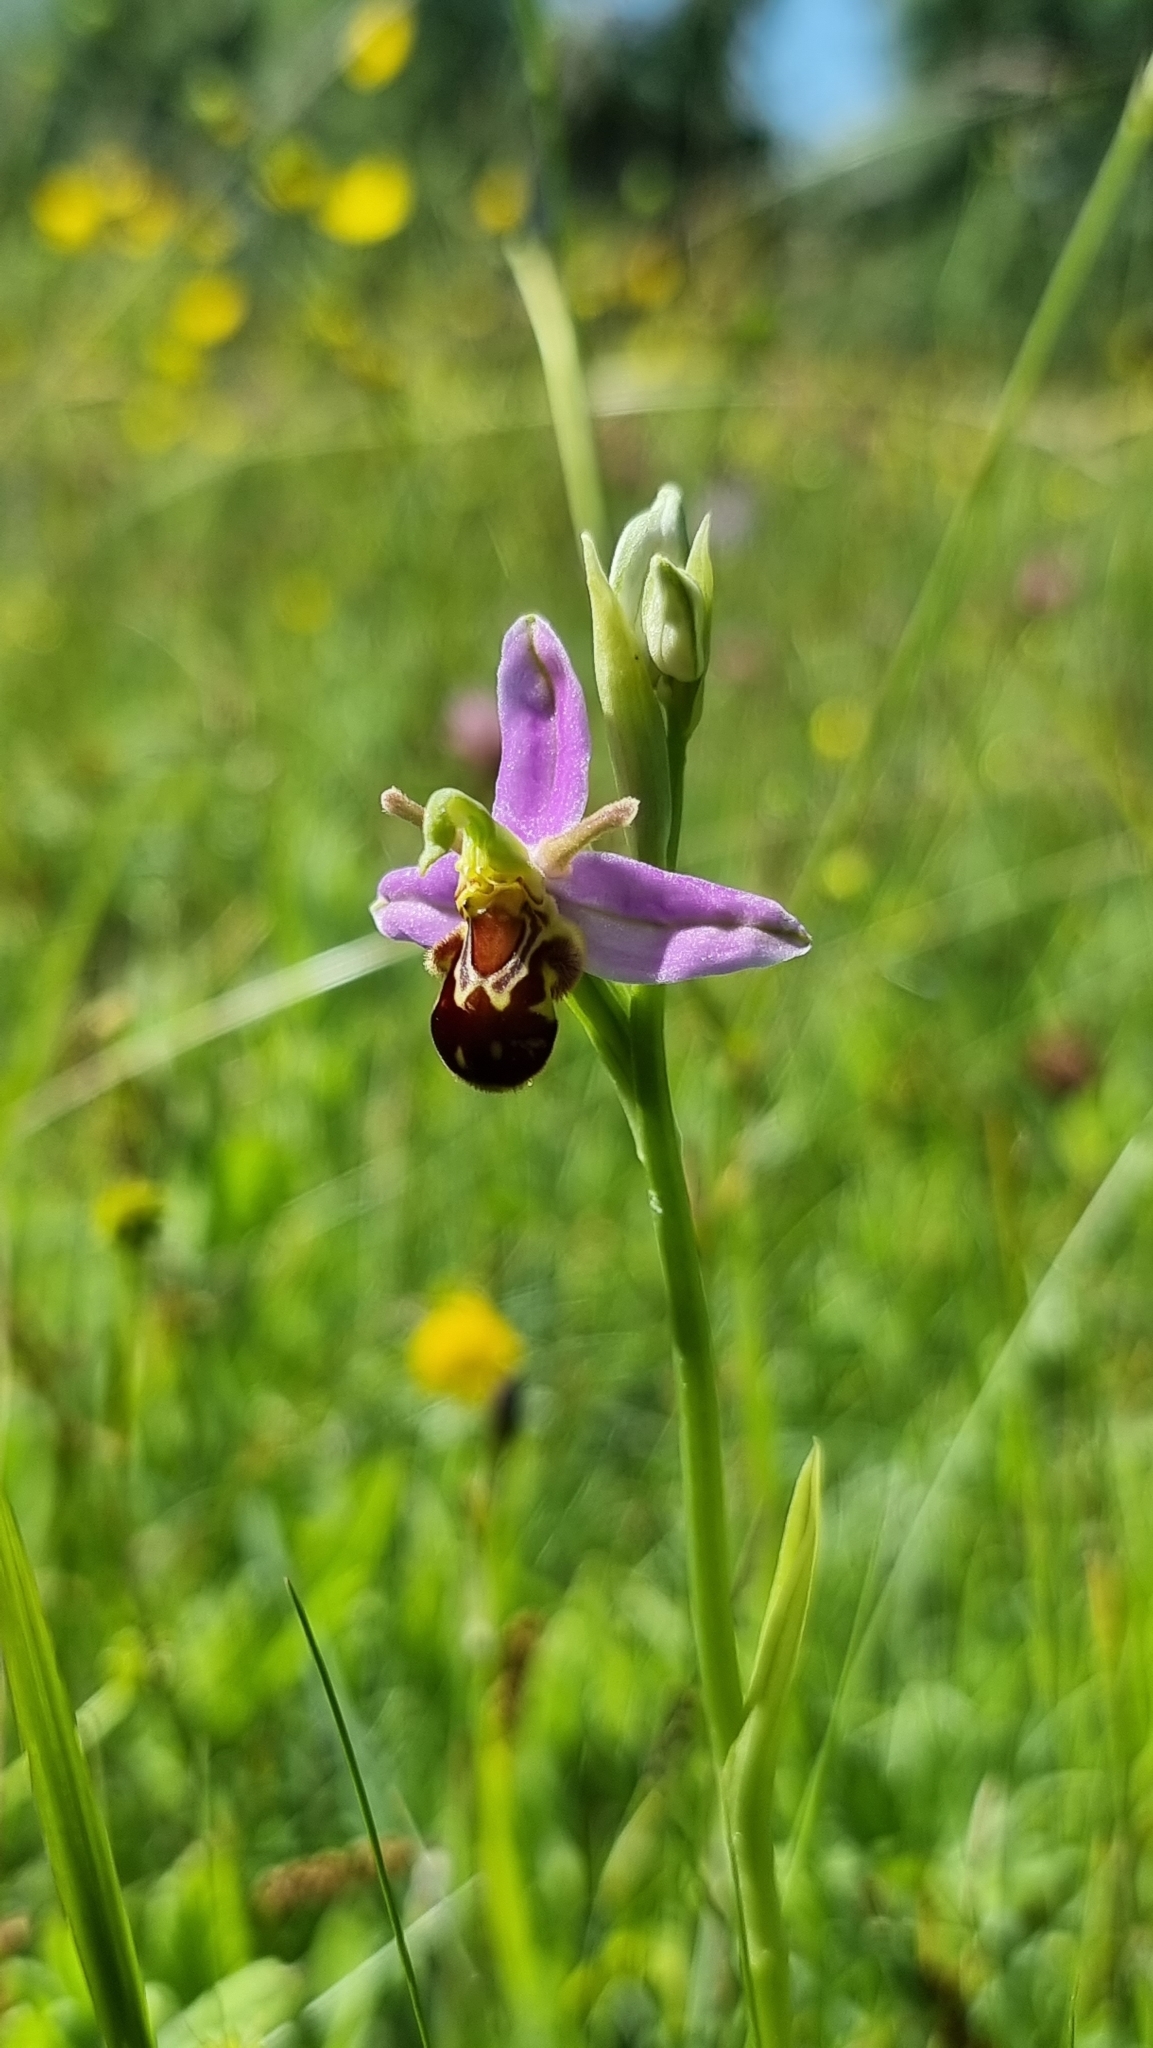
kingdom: Plantae
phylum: Tracheophyta
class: Liliopsida
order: Asparagales
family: Orchidaceae
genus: Ophrys
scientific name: Ophrys apifera
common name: Bee orchid
